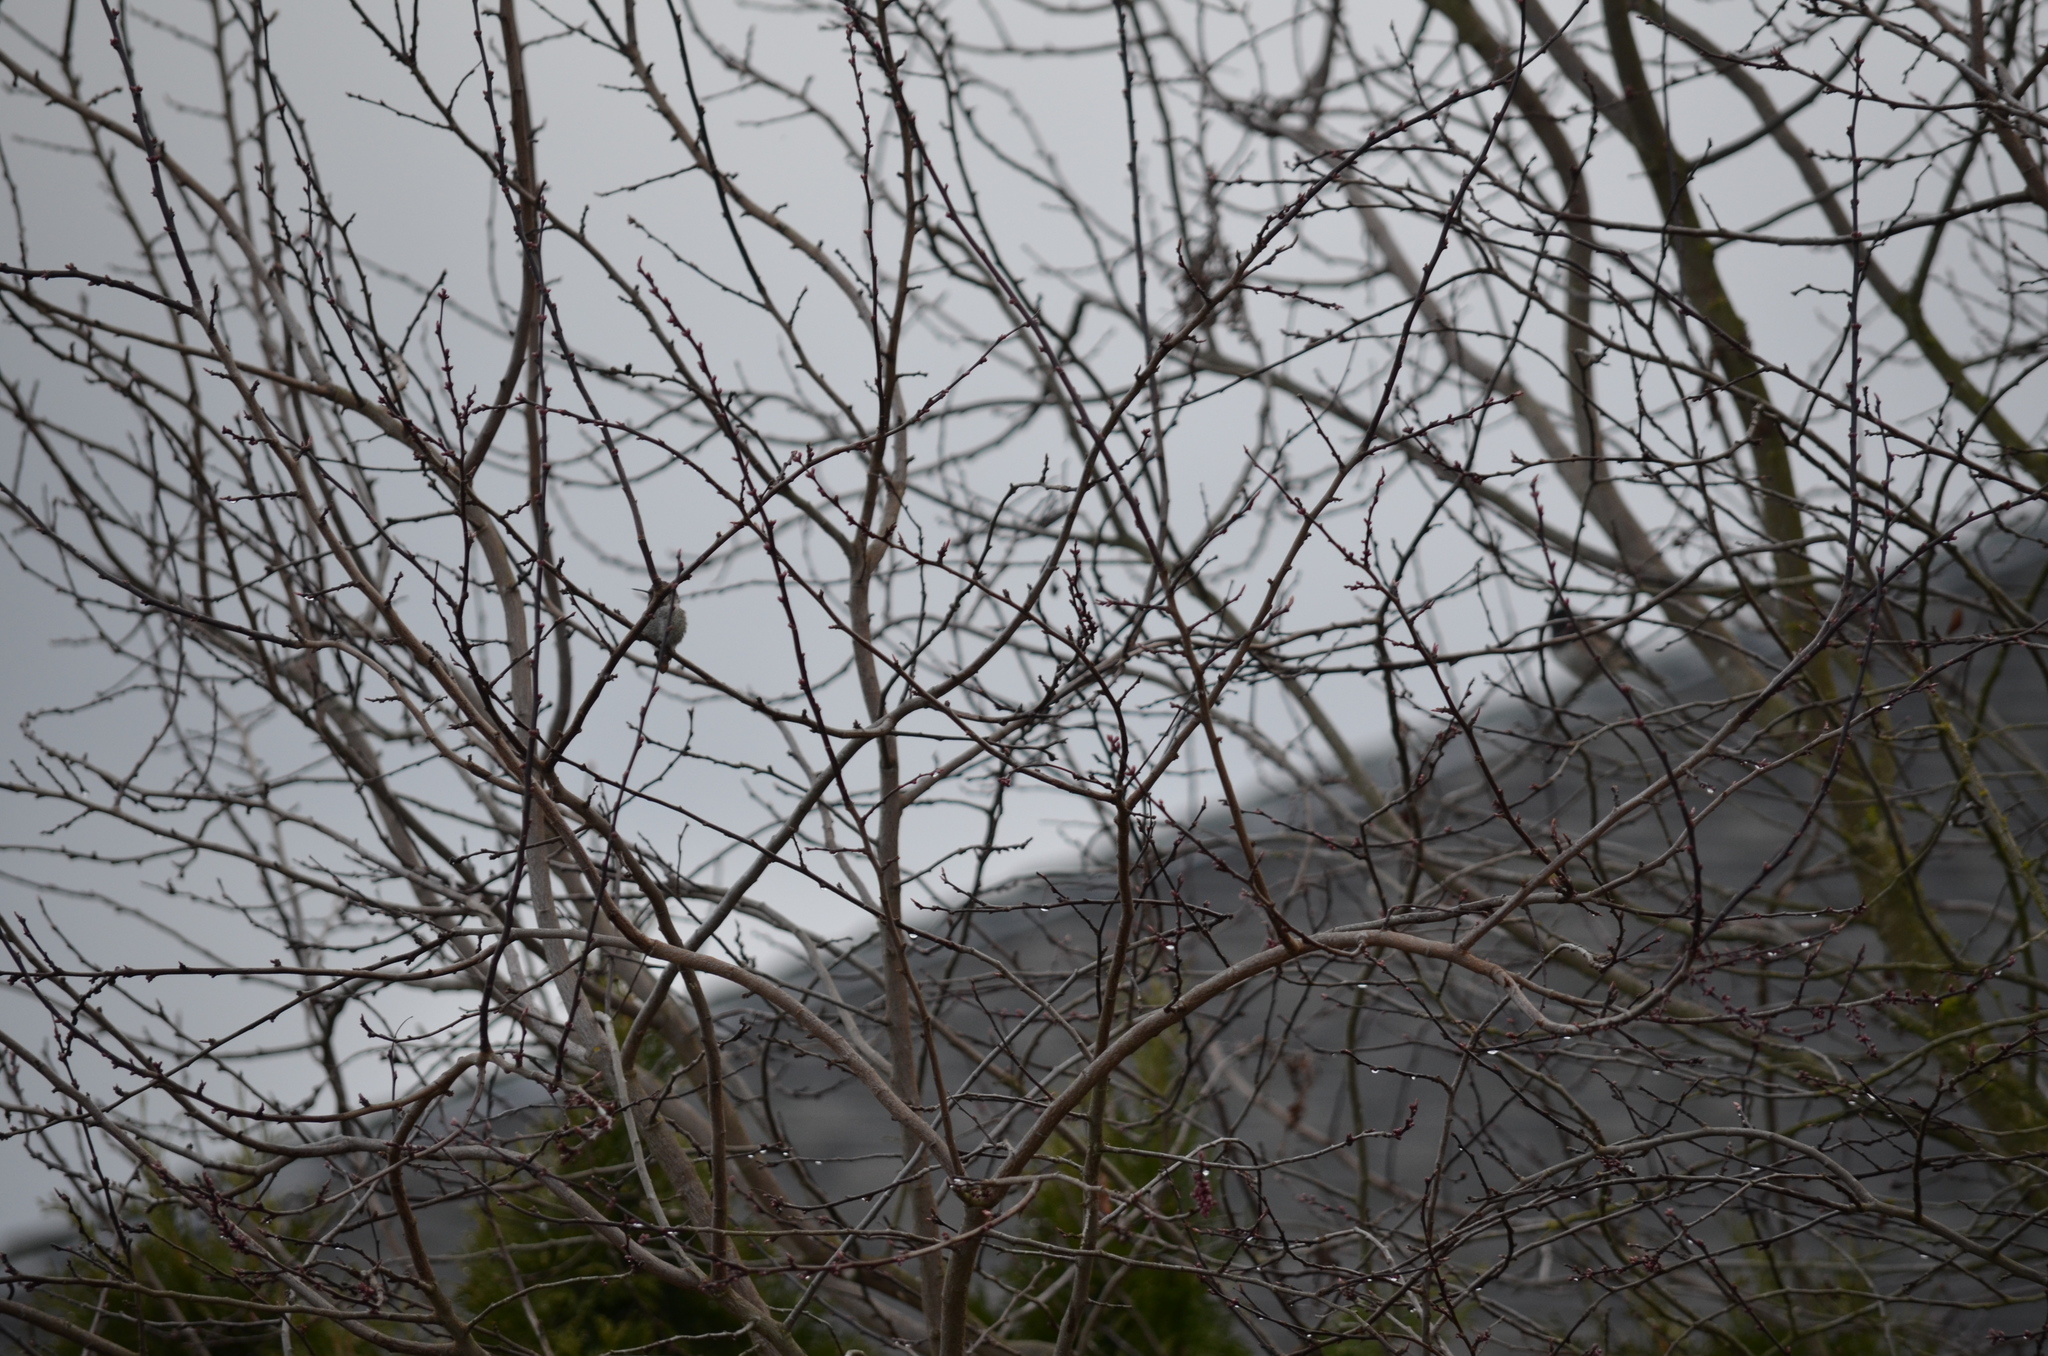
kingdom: Animalia
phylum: Chordata
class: Aves
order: Apodiformes
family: Trochilidae
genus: Calypte
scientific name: Calypte anna
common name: Anna's hummingbird
